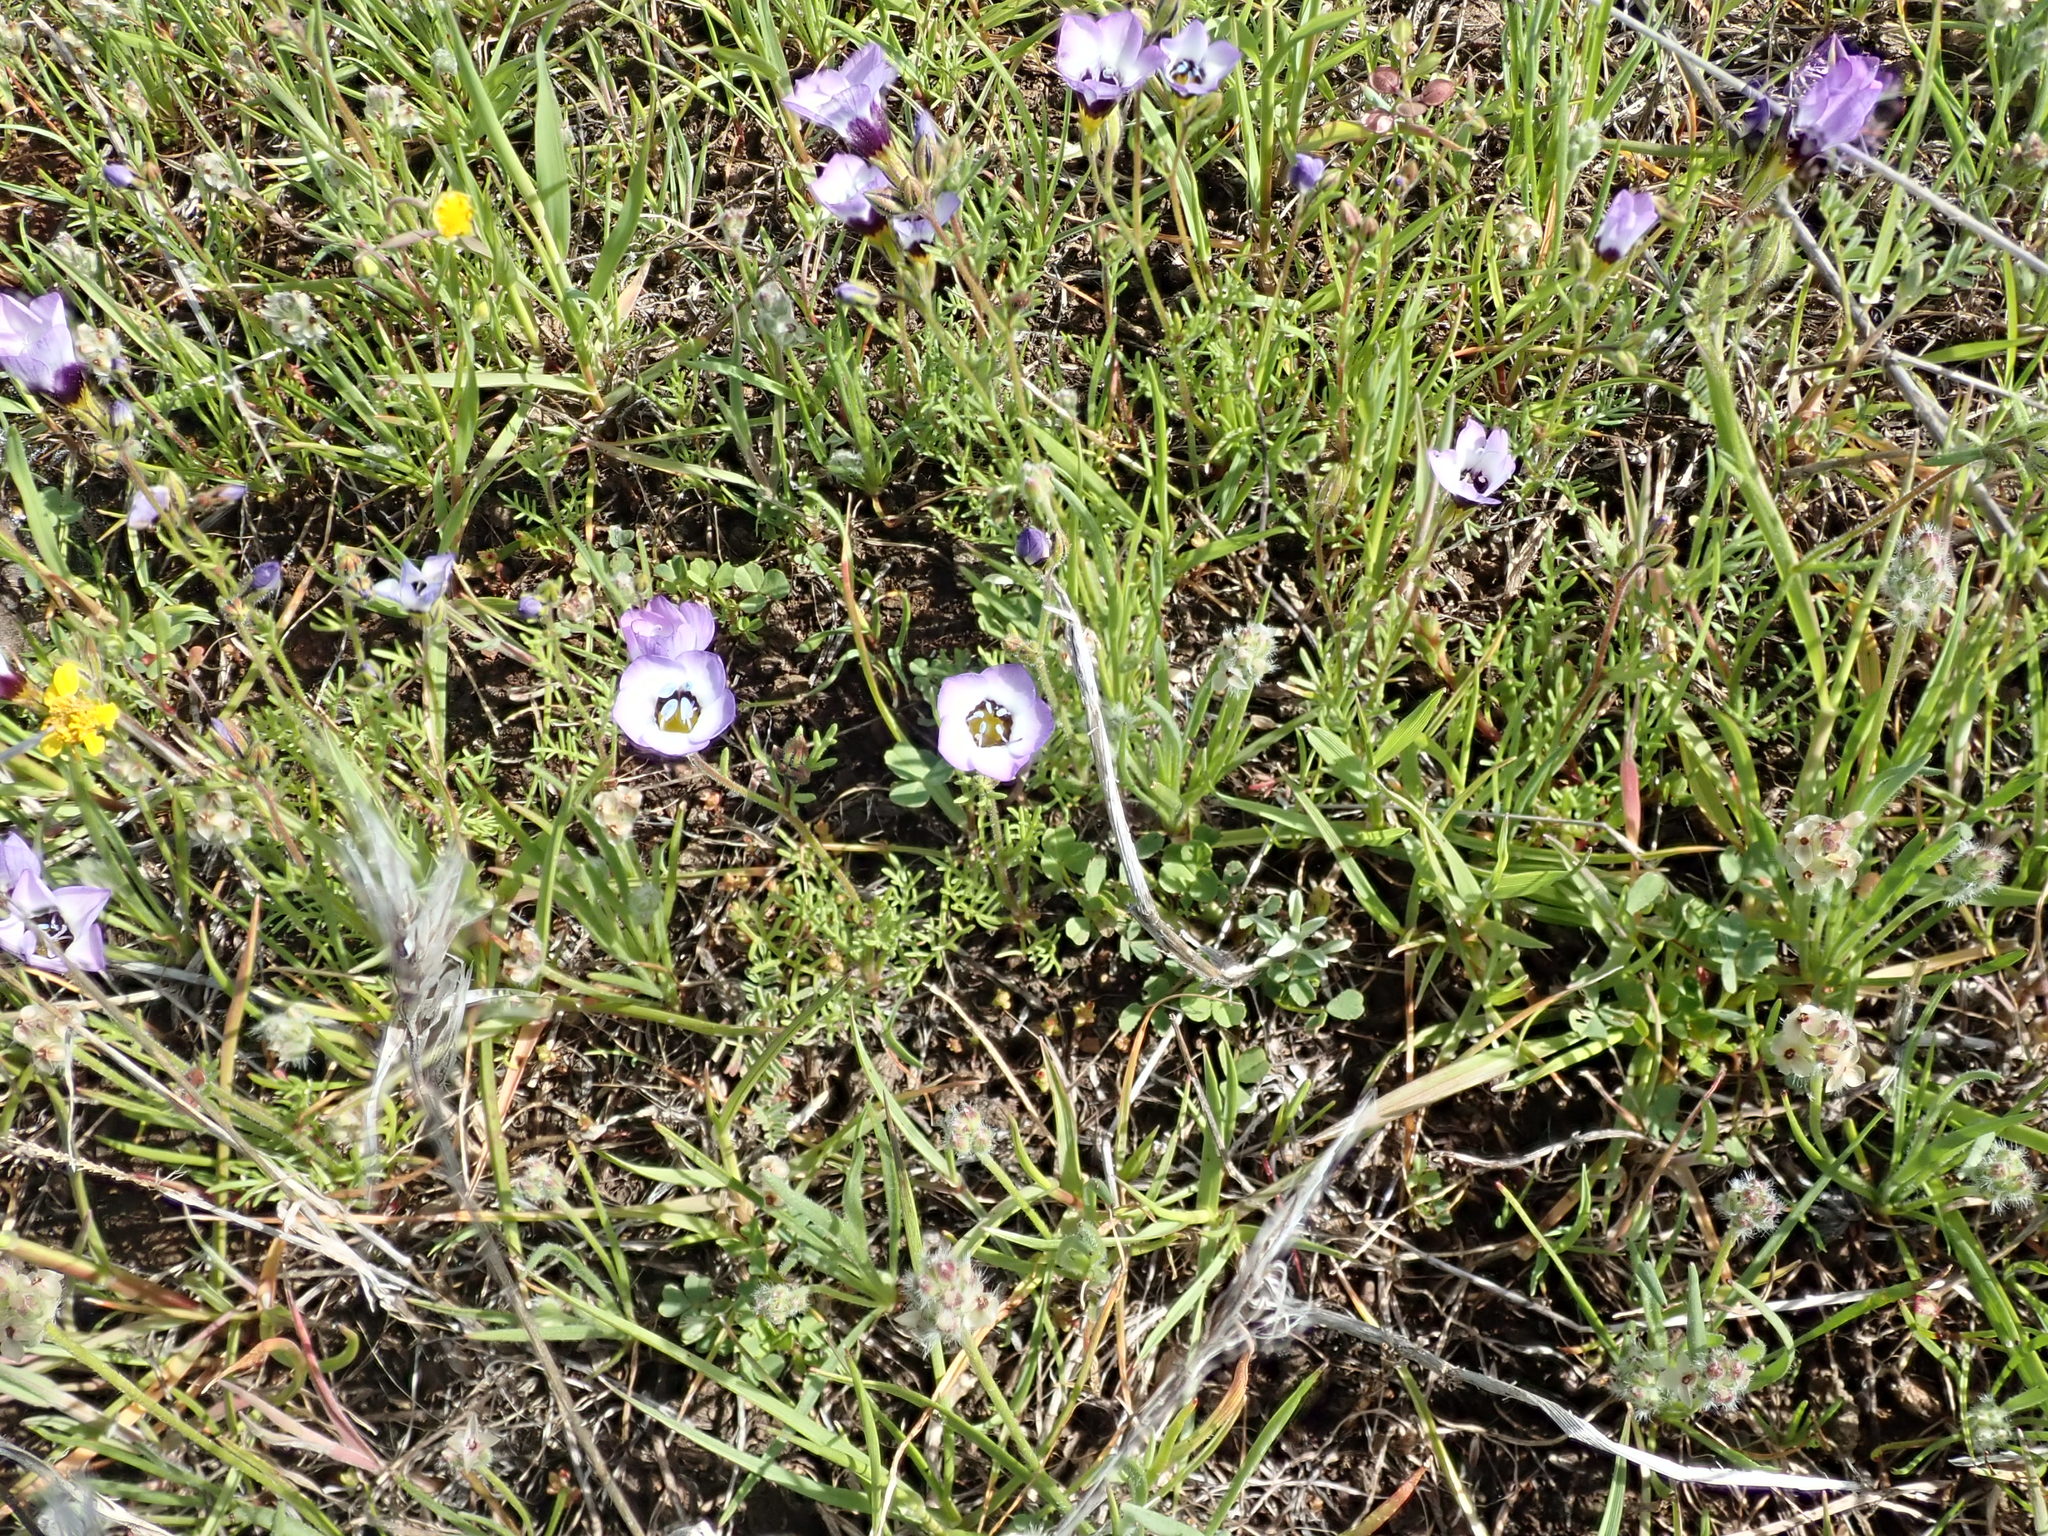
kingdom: Plantae
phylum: Tracheophyta
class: Magnoliopsida
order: Ericales
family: Polemoniaceae
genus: Gilia
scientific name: Gilia tricolor
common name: Bird's-eyes
